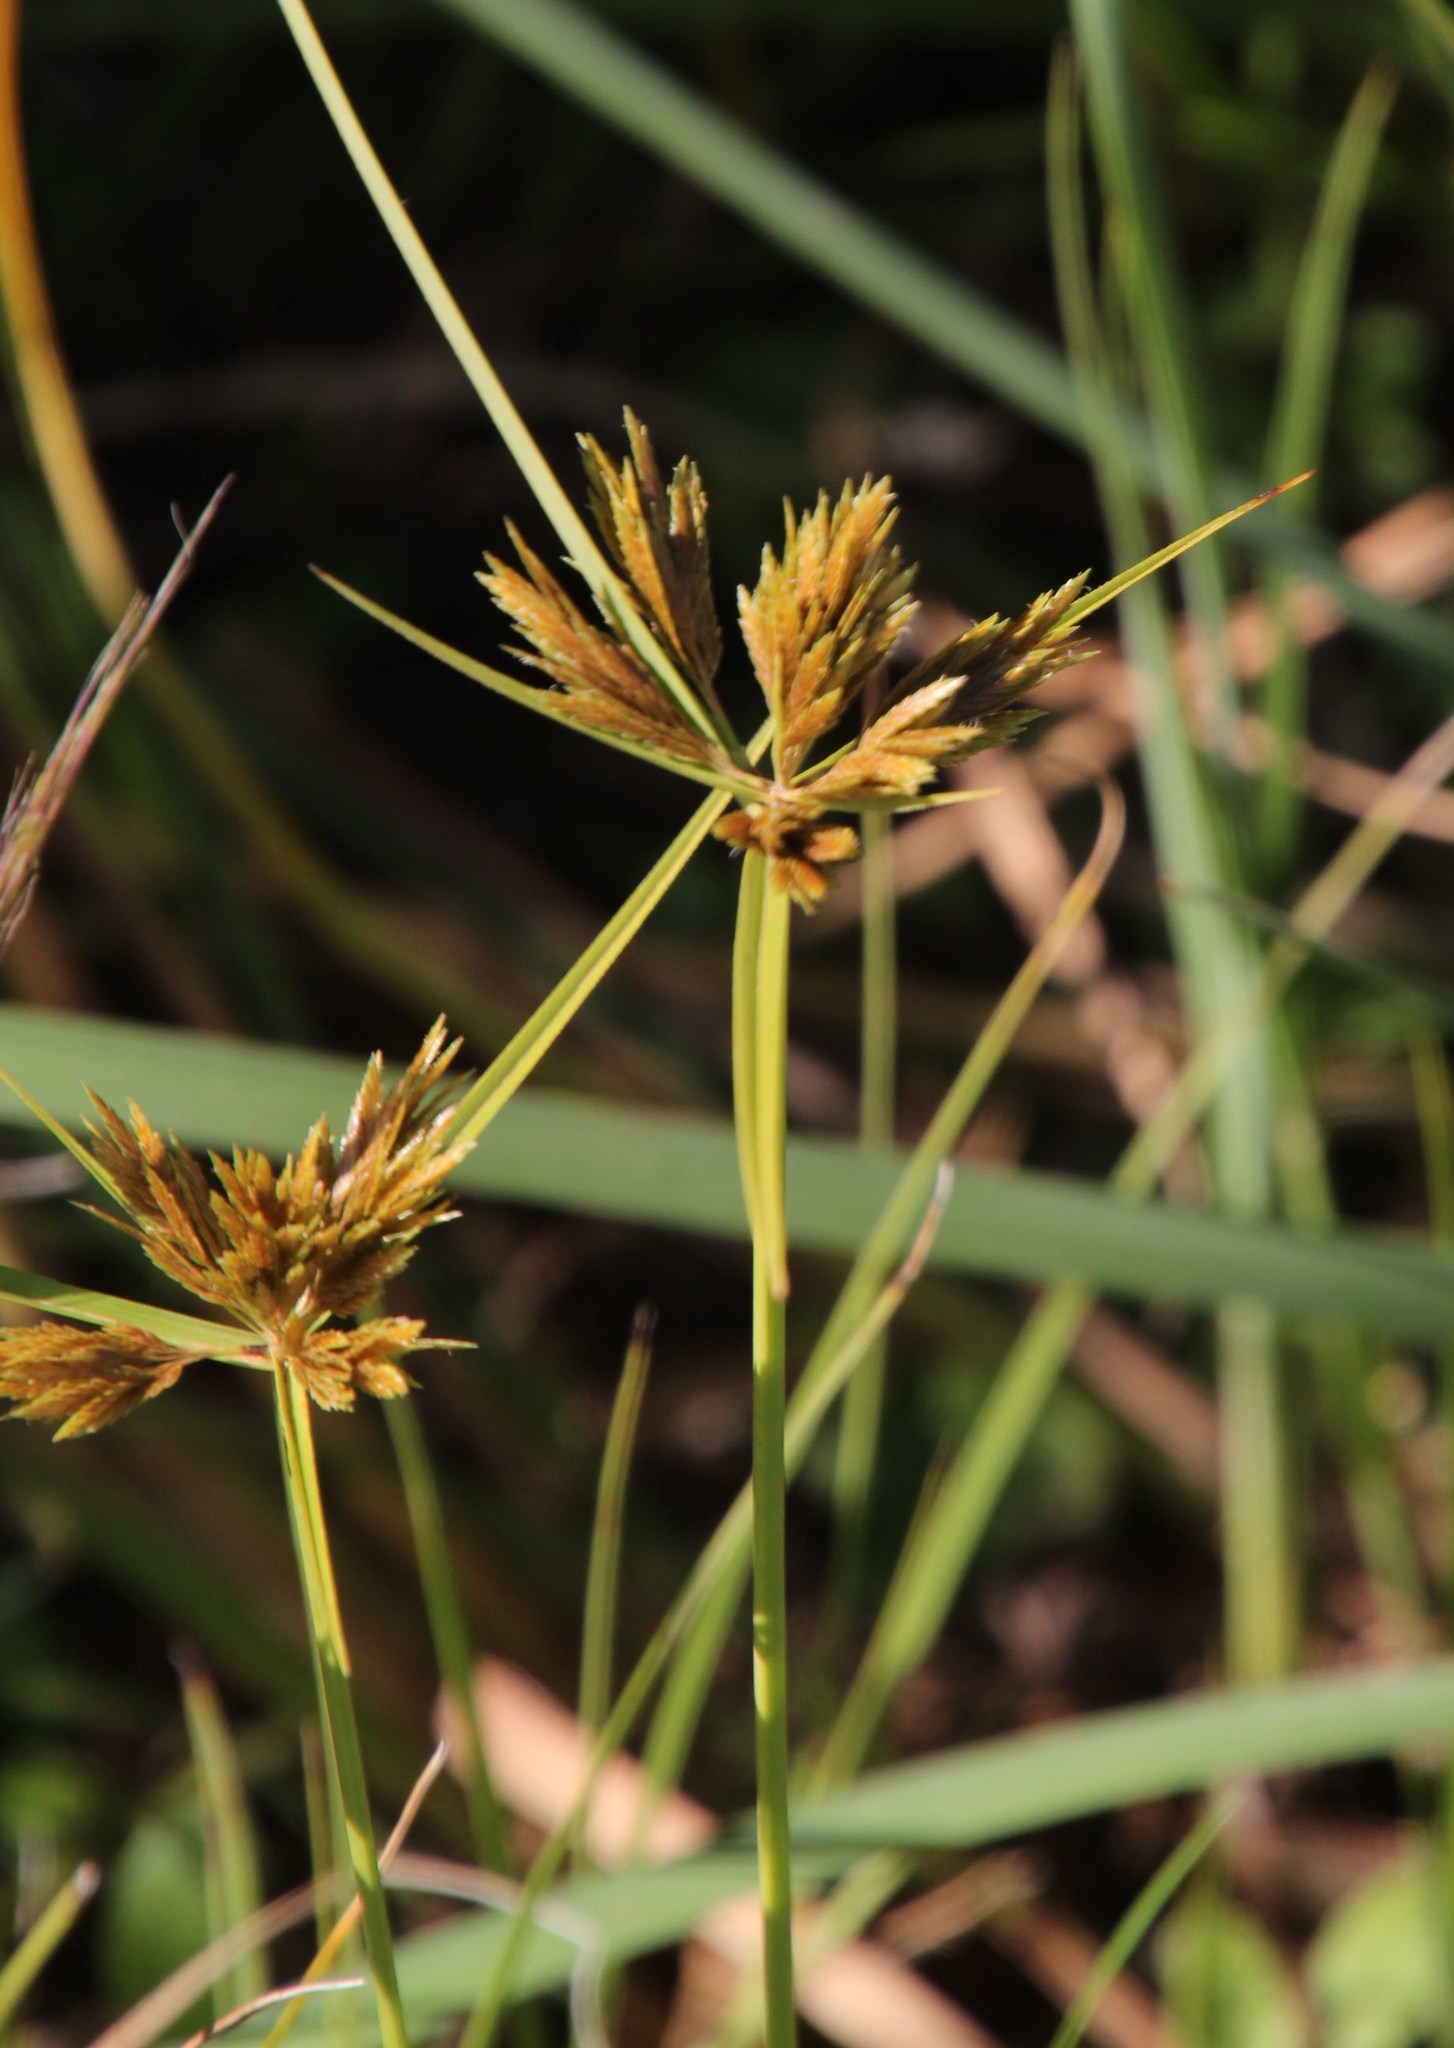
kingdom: Plantae
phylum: Tracheophyta
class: Liliopsida
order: Poales
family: Cyperaceae
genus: Cyperus
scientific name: Cyperus polystachyos
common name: Bunchy flat sedge
